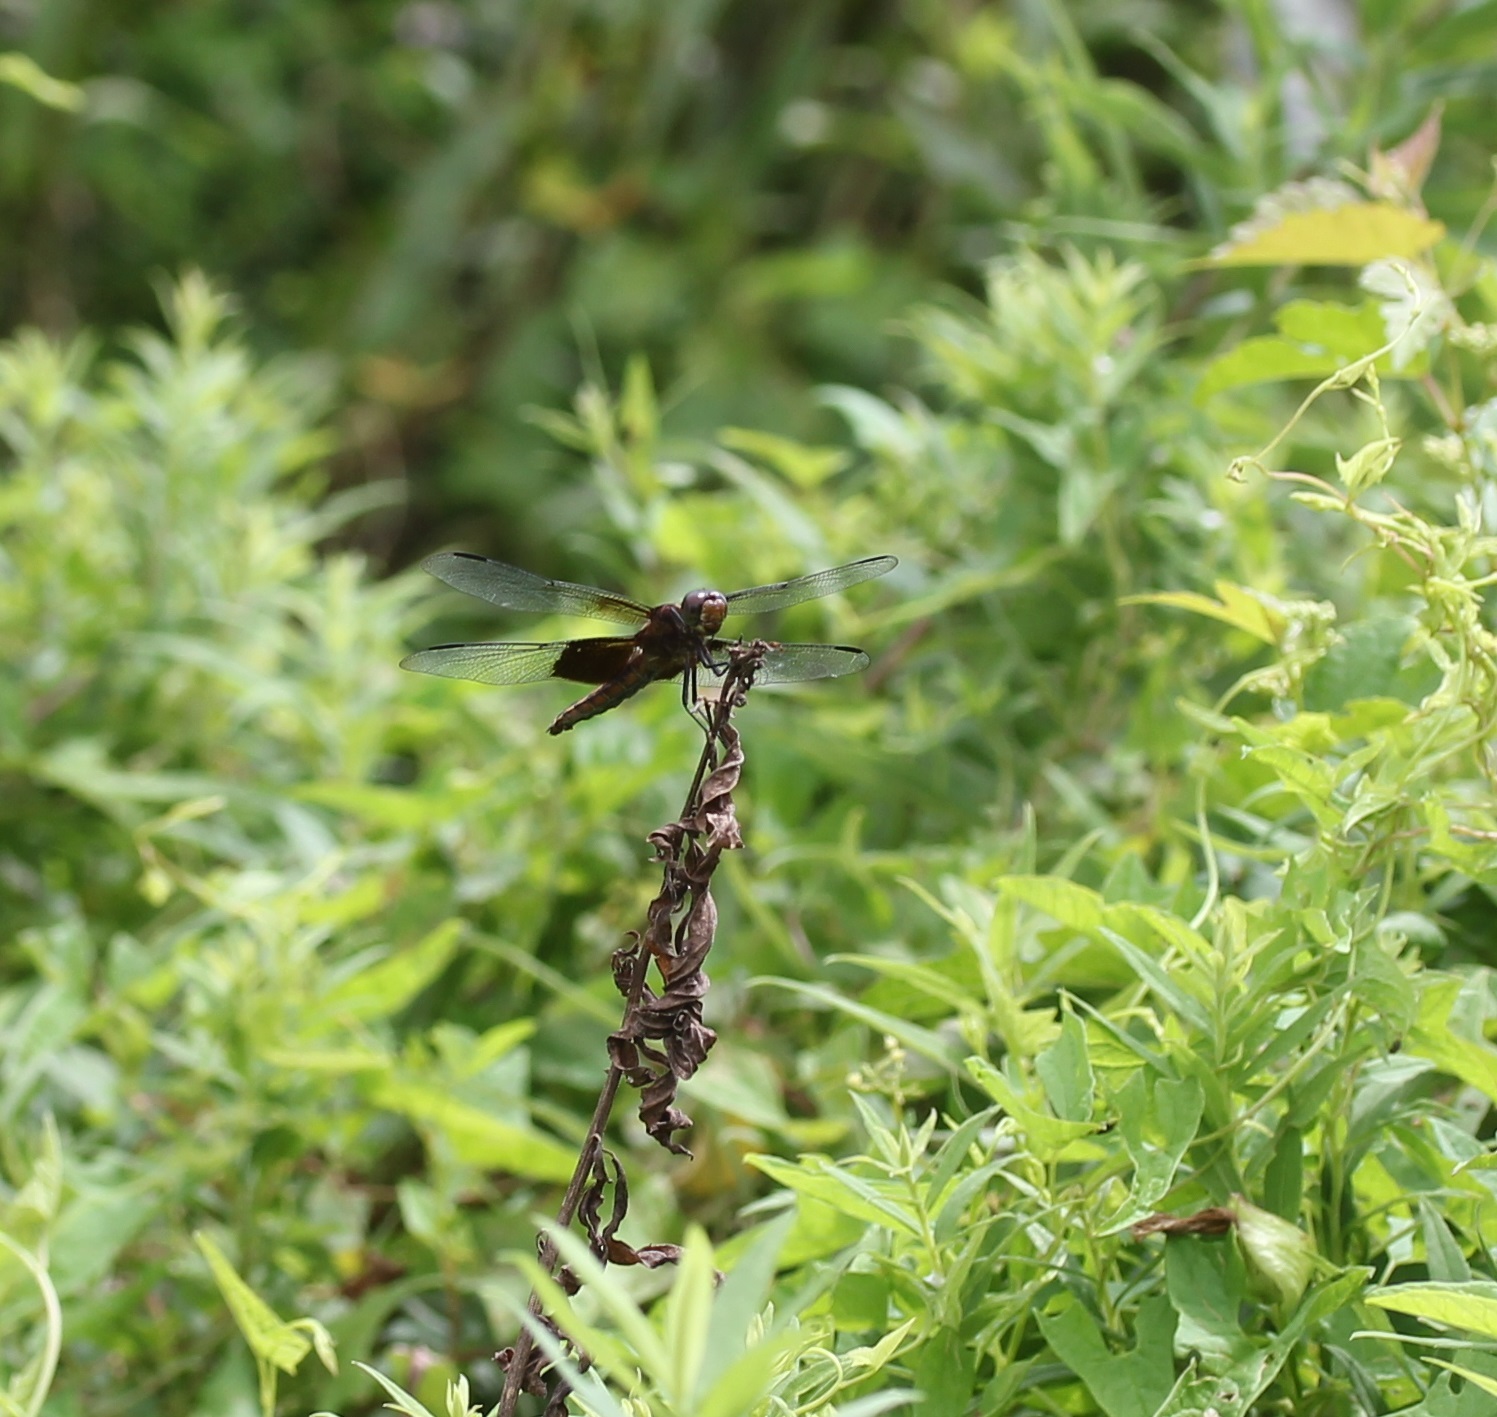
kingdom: Animalia
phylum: Arthropoda
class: Insecta
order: Odonata
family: Libellulidae
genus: Libellula
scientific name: Libellula luctuosa
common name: Widow skimmer
